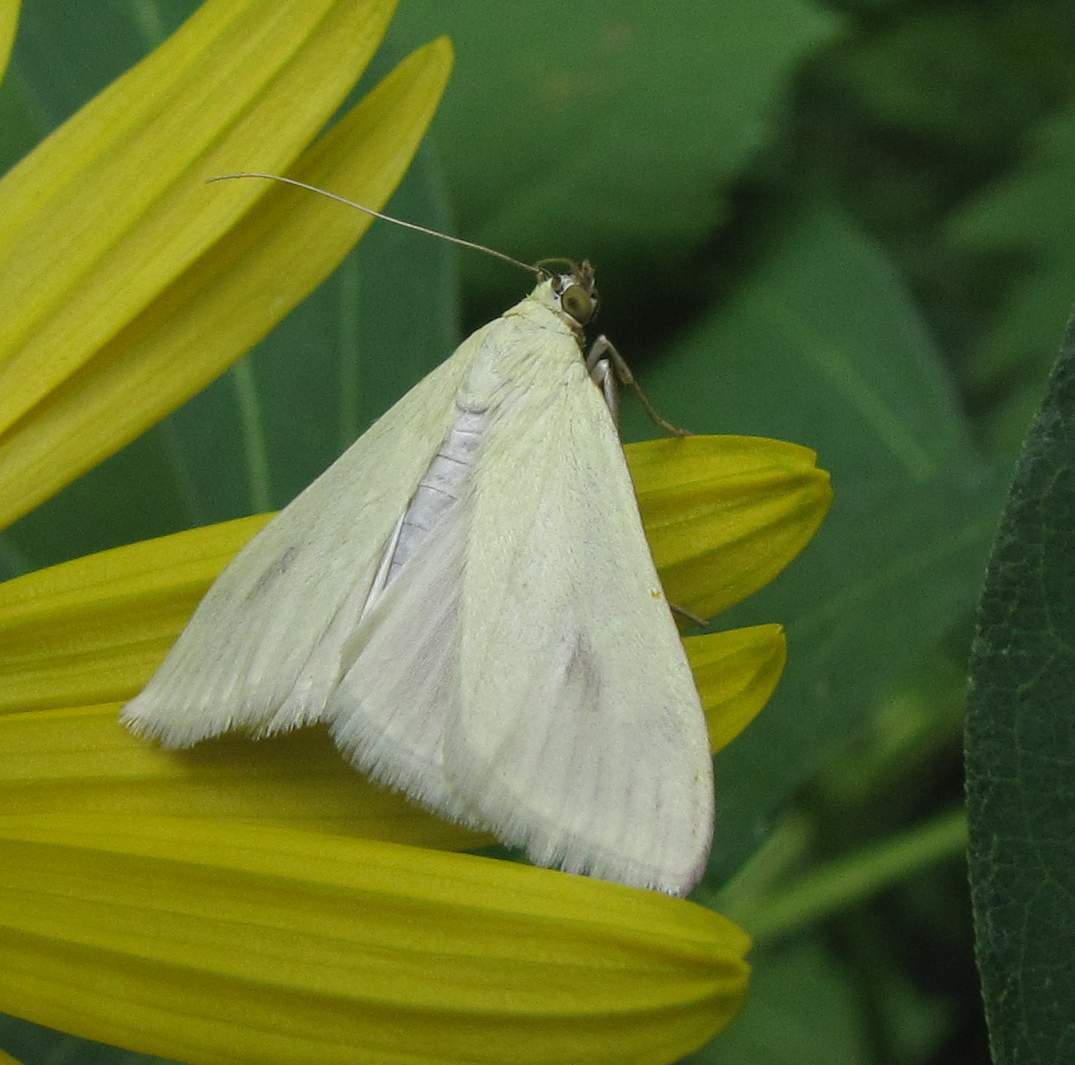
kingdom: Animalia
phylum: Arthropoda
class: Insecta
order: Lepidoptera
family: Crambidae
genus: Sitochroa
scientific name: Sitochroa palealis
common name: Greenish-yellow sitochroa moth
